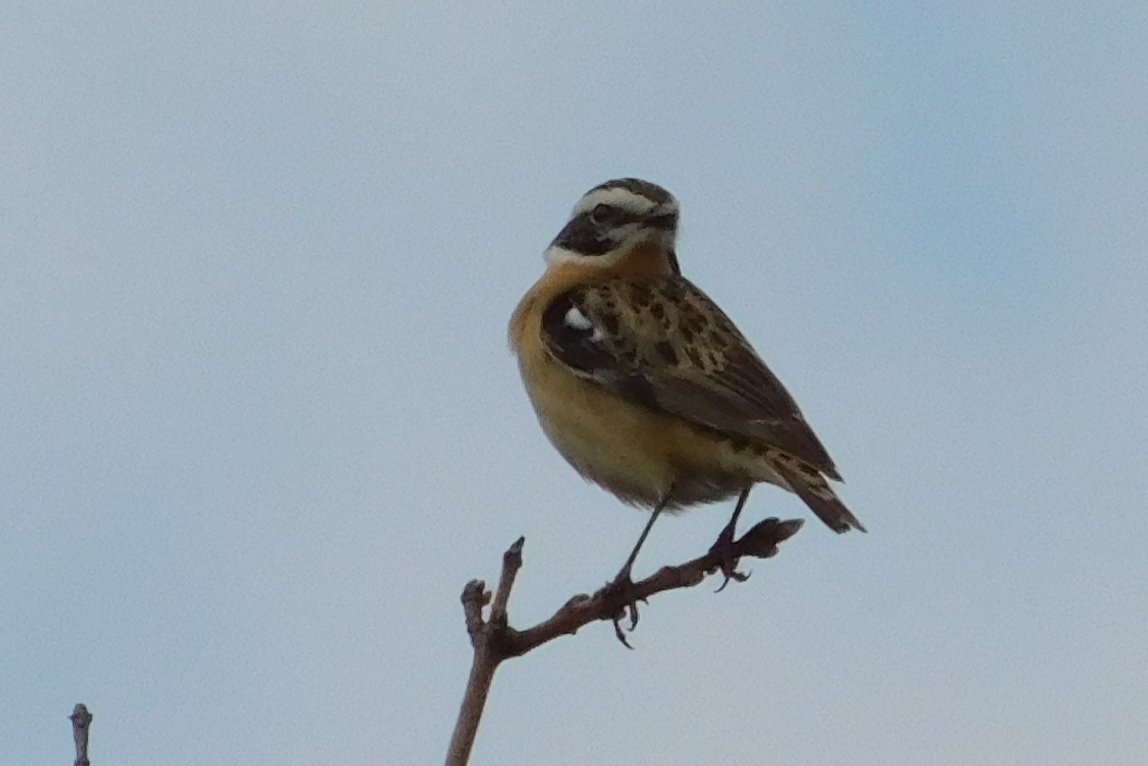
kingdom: Animalia
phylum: Chordata
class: Aves
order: Passeriformes
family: Muscicapidae
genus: Saxicola
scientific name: Saxicola rubetra
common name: Whinchat
